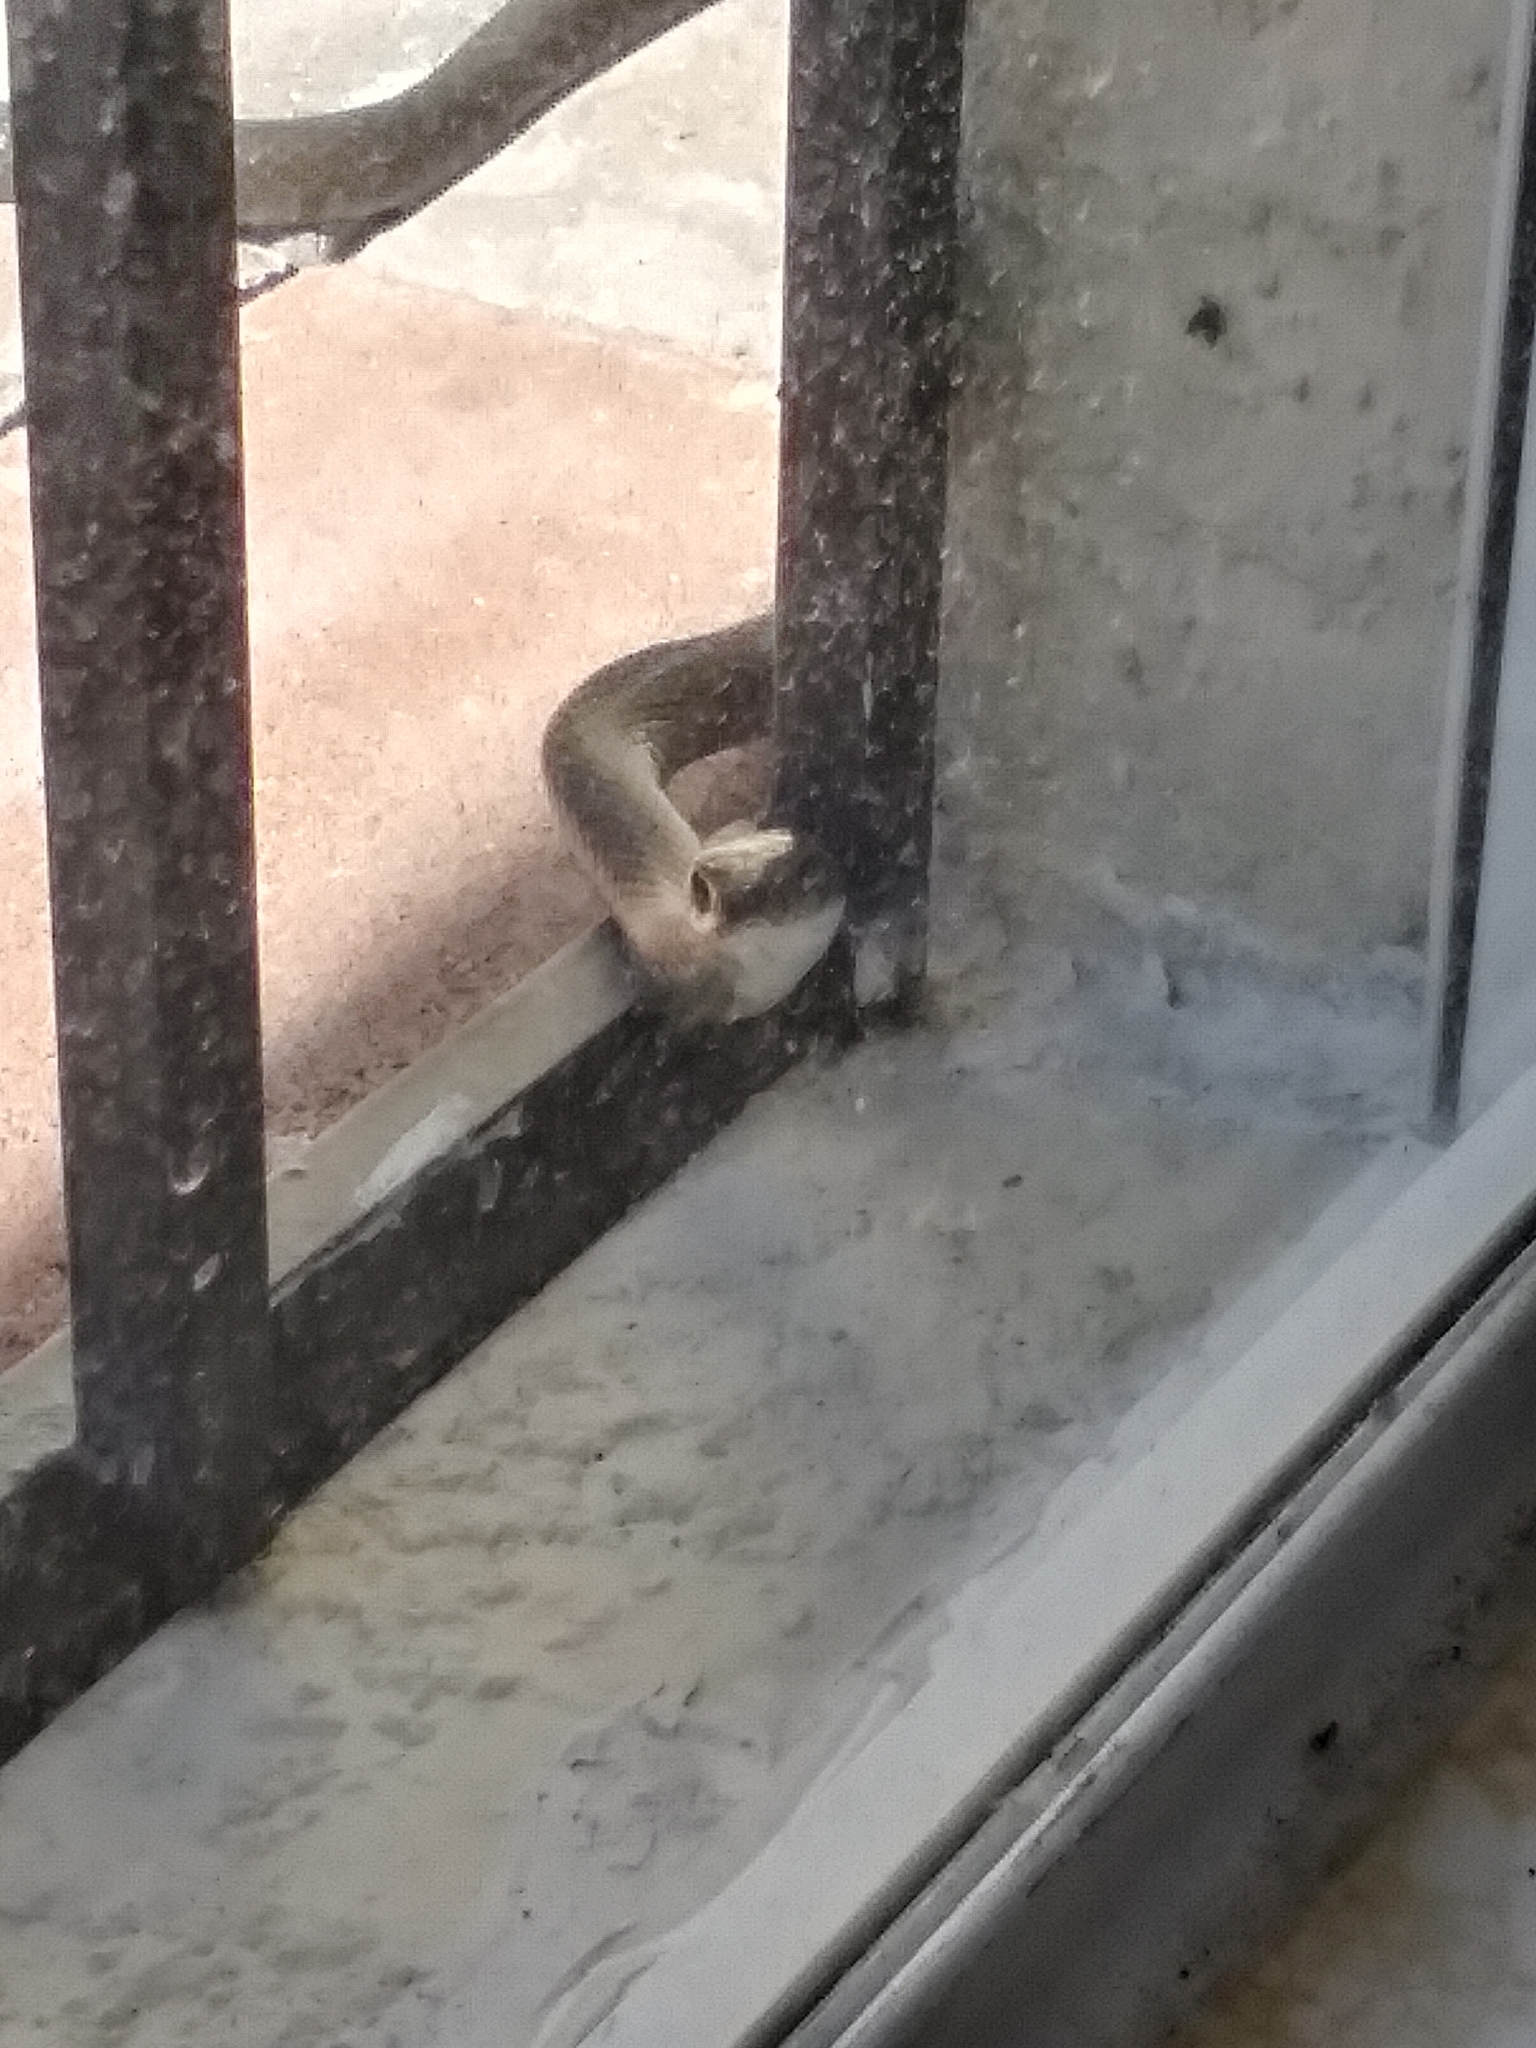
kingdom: Animalia
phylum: Chordata
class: Squamata
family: Colubridae
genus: Coluber
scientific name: Coluber constrictor
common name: Eastern racer
